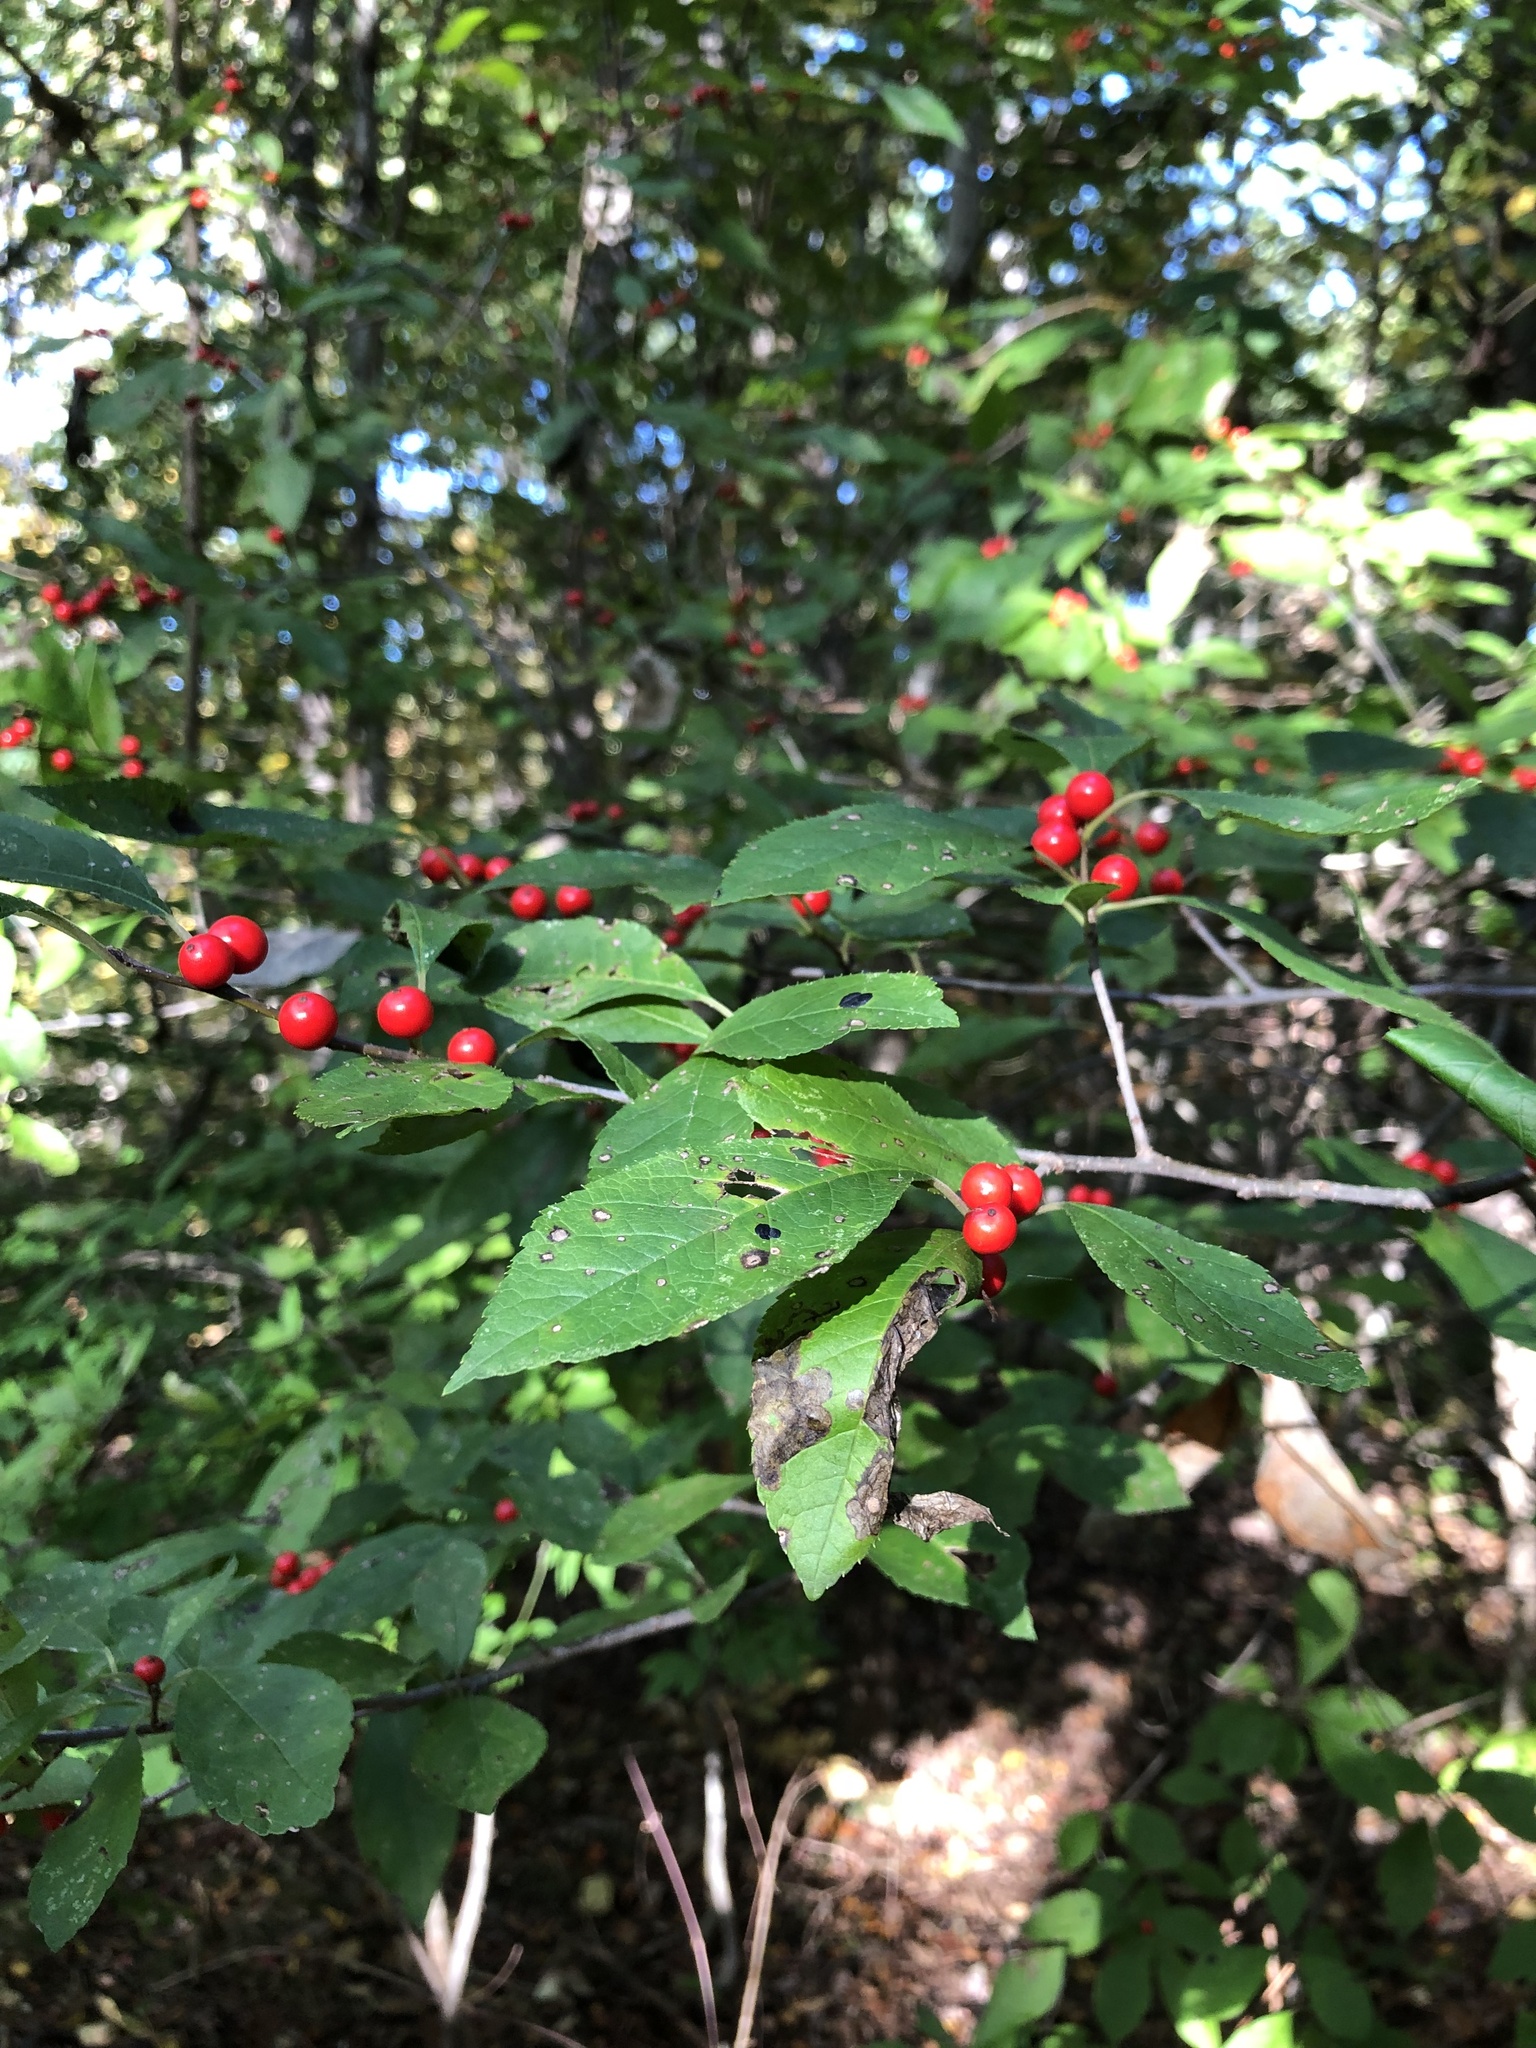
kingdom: Plantae
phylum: Tracheophyta
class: Magnoliopsida
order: Aquifoliales
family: Aquifoliaceae
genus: Ilex
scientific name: Ilex verticillata
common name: Virginia winterberry
